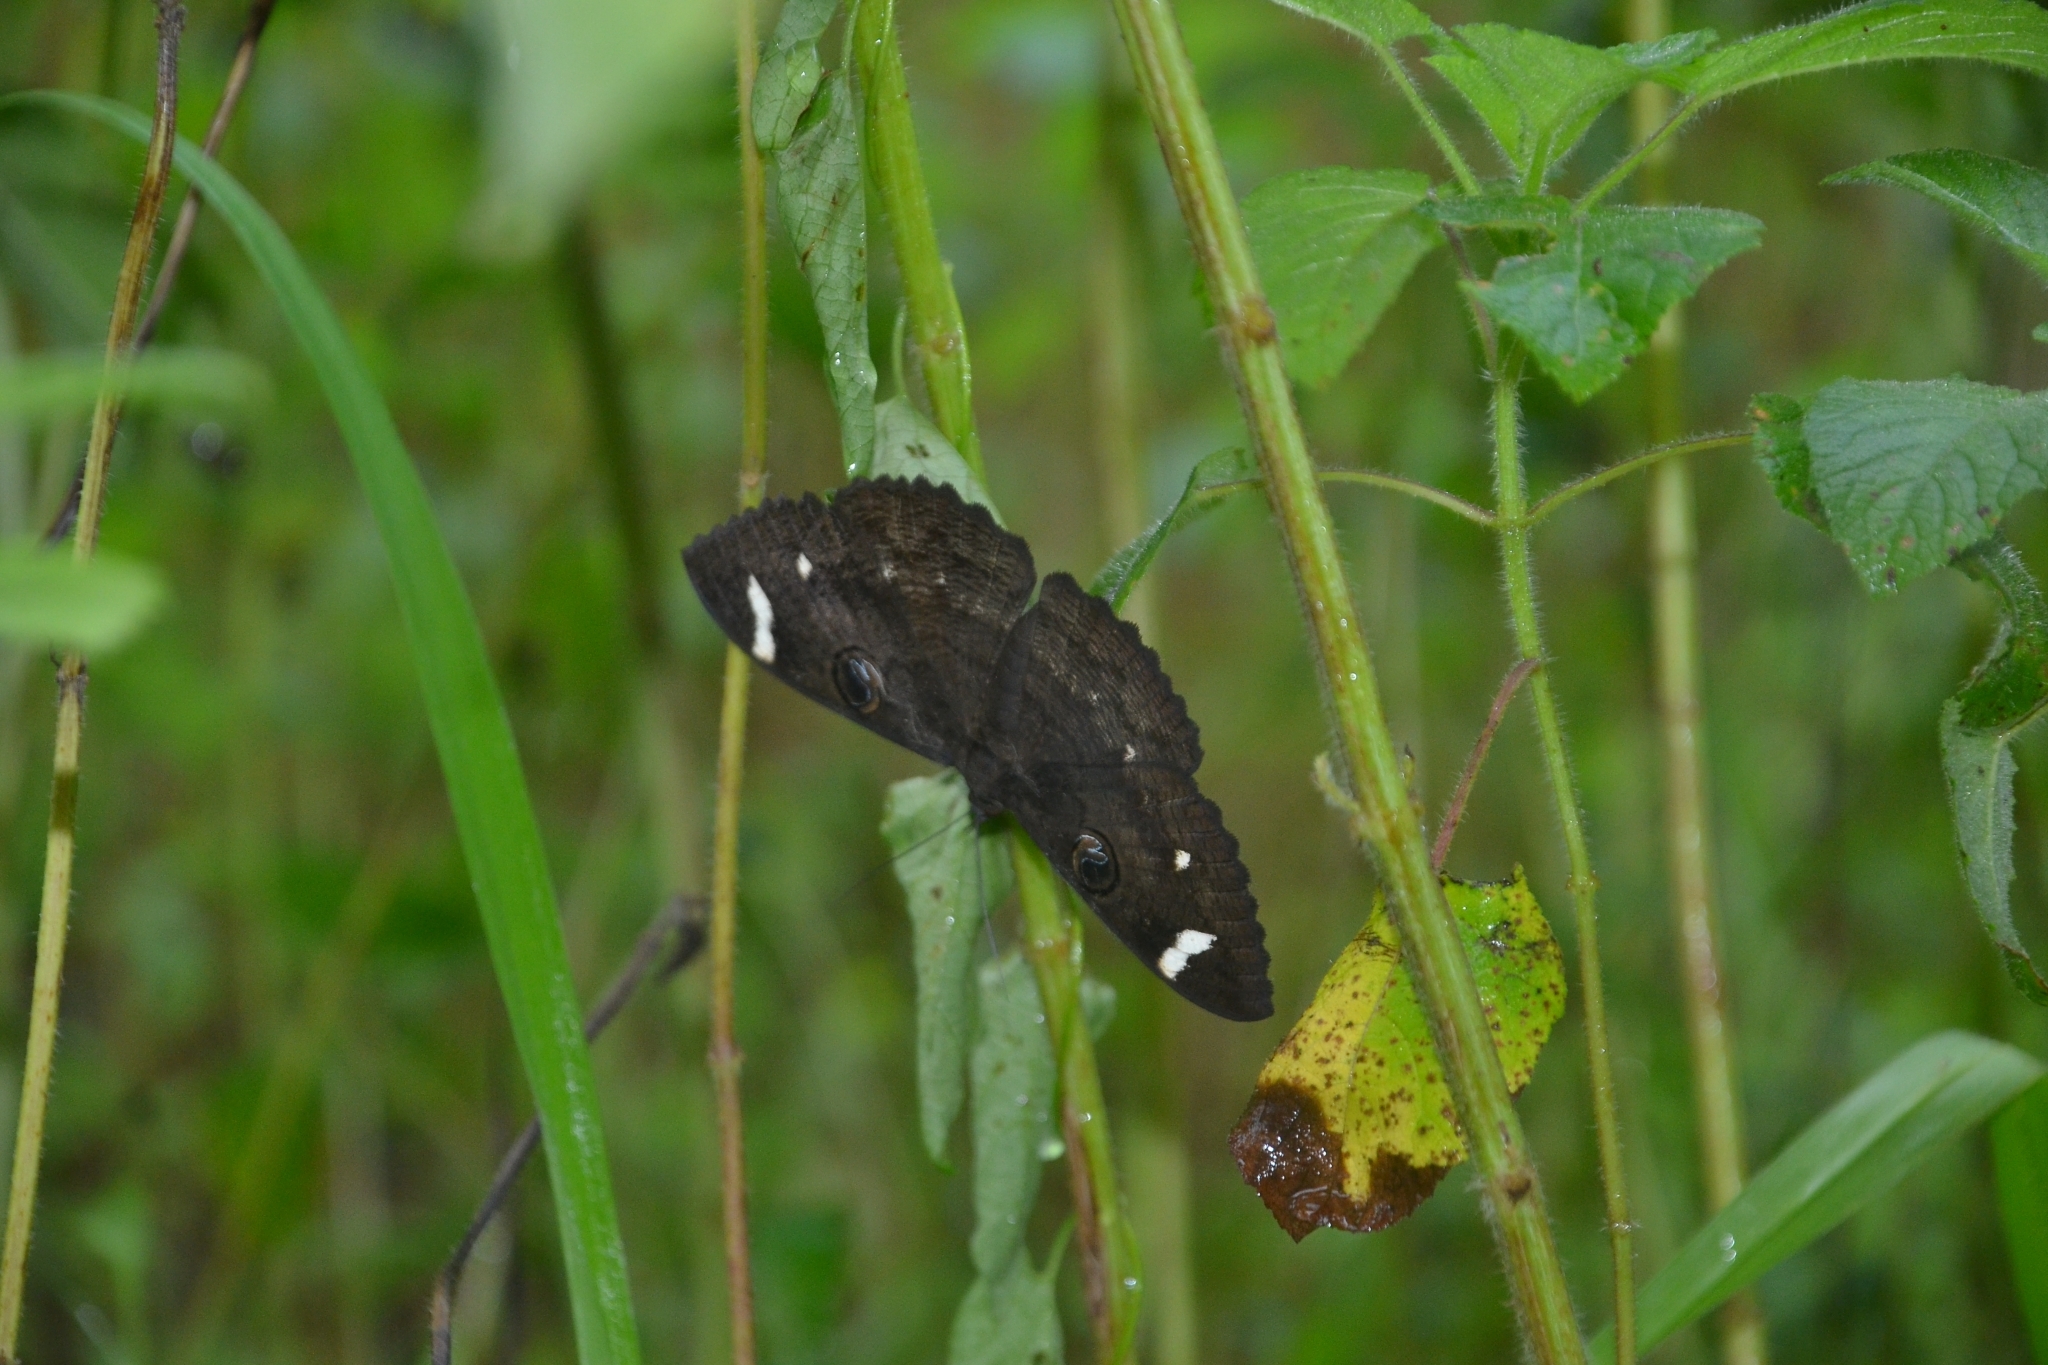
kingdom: Animalia
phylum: Arthropoda
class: Insecta
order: Lepidoptera
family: Erebidae
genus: Erebus
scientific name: Erebus hieroglyphica
